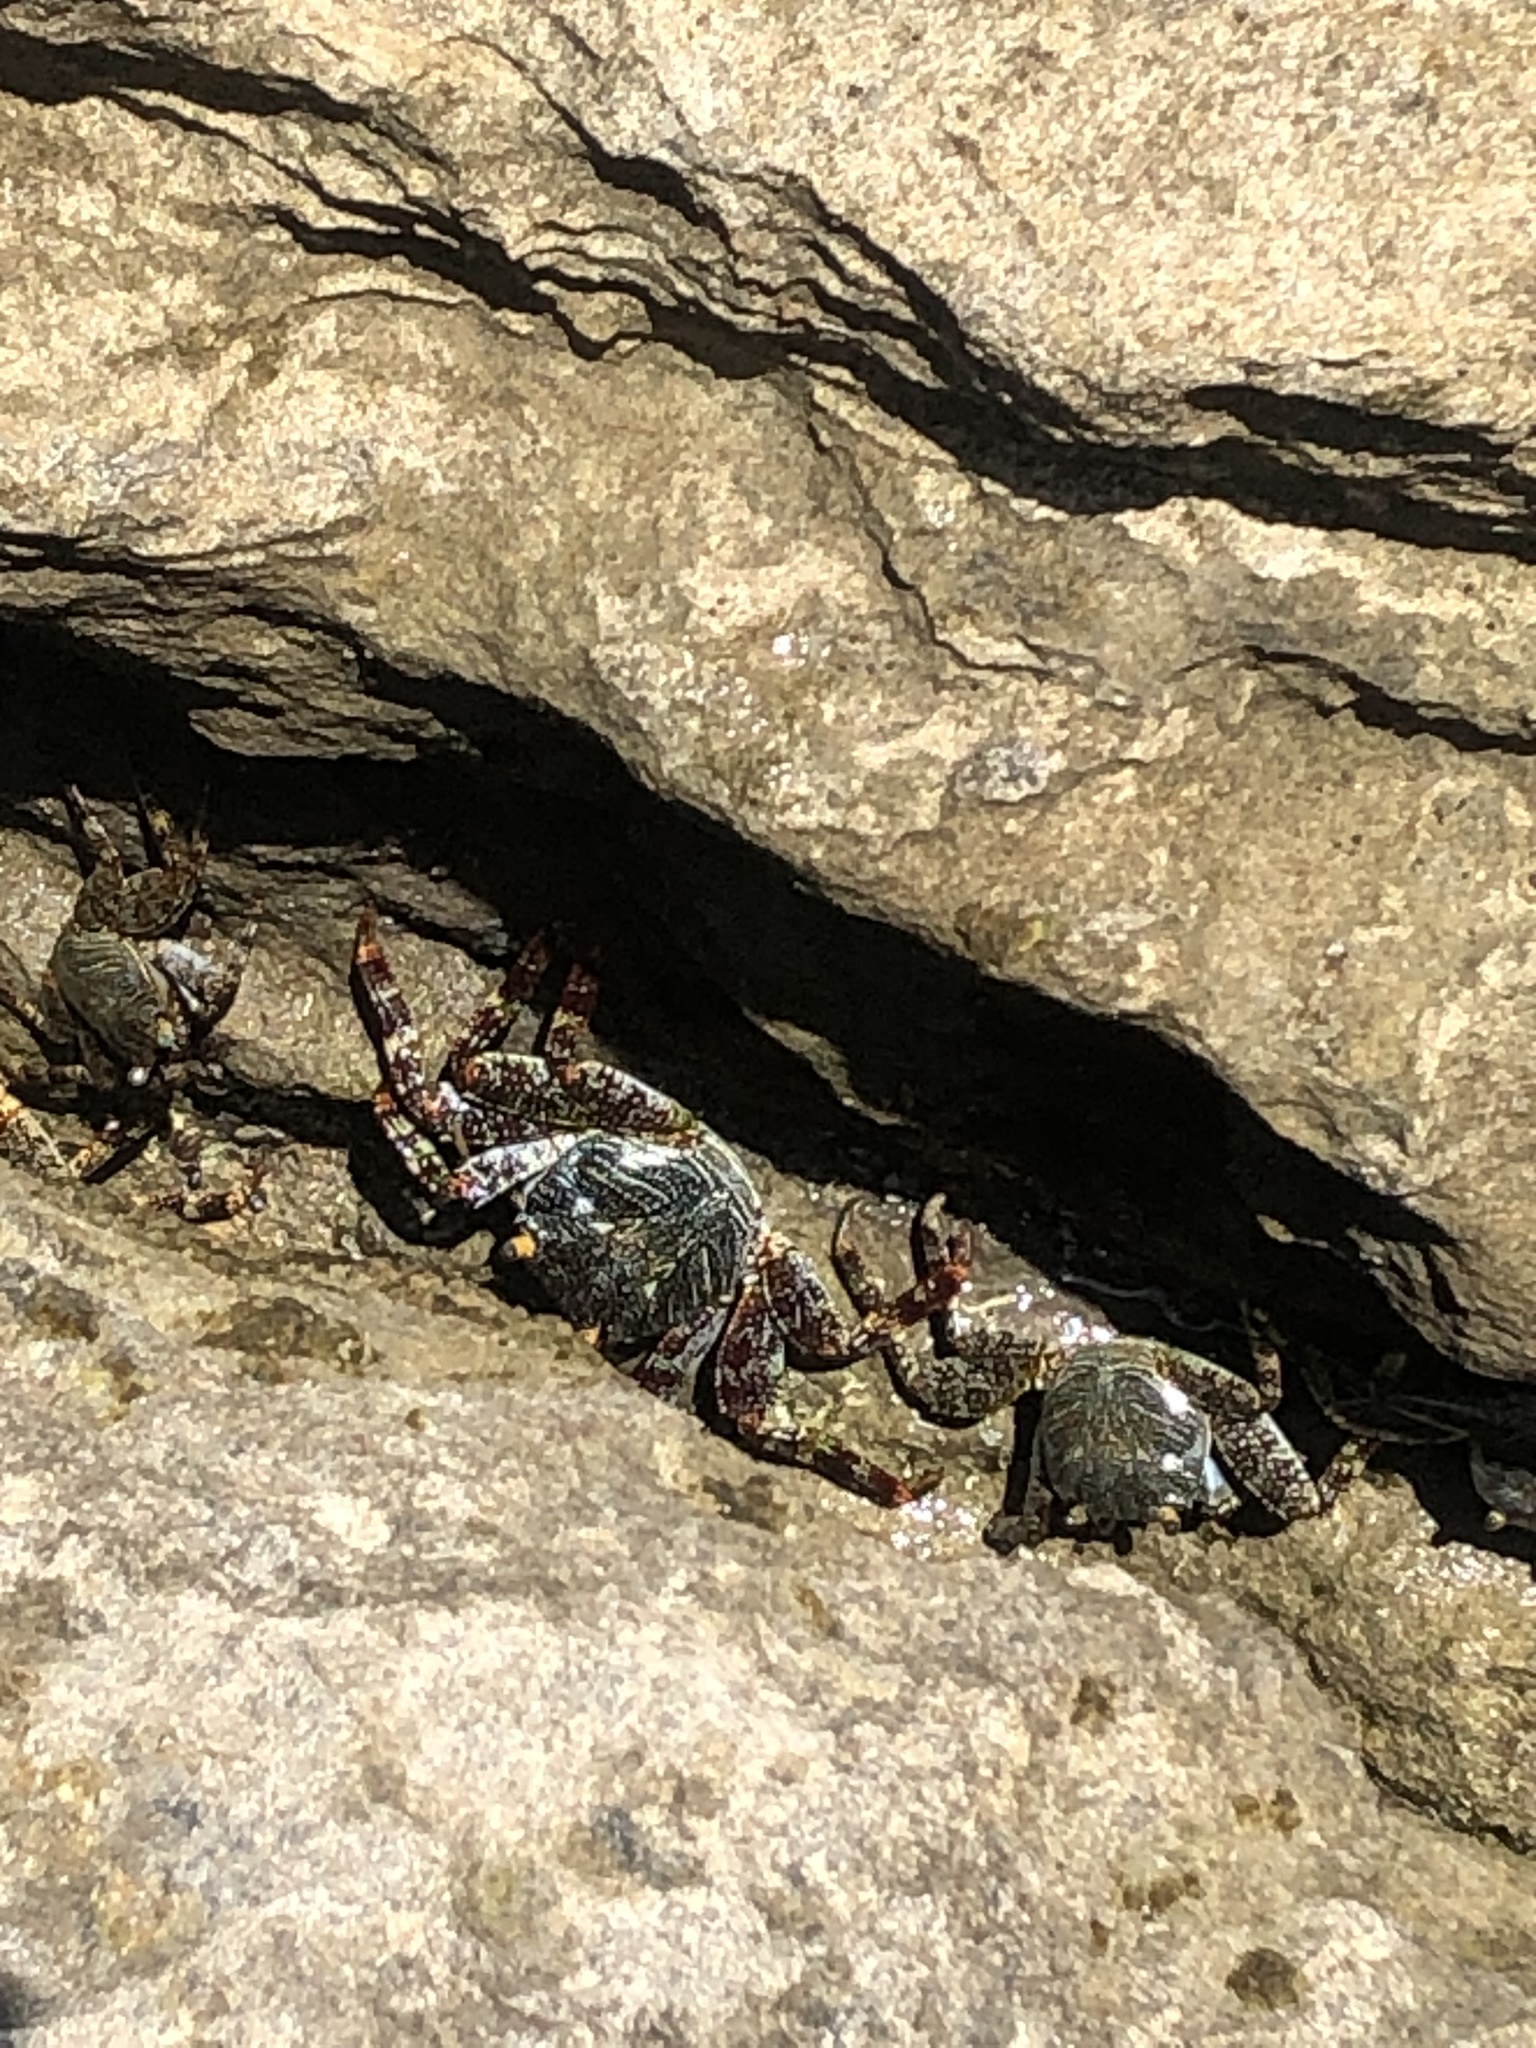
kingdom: Animalia
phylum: Arthropoda
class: Malacostraca
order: Decapoda
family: Grapsidae
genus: Grapsus
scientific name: Grapsus grapsus
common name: Sally lightfoot
